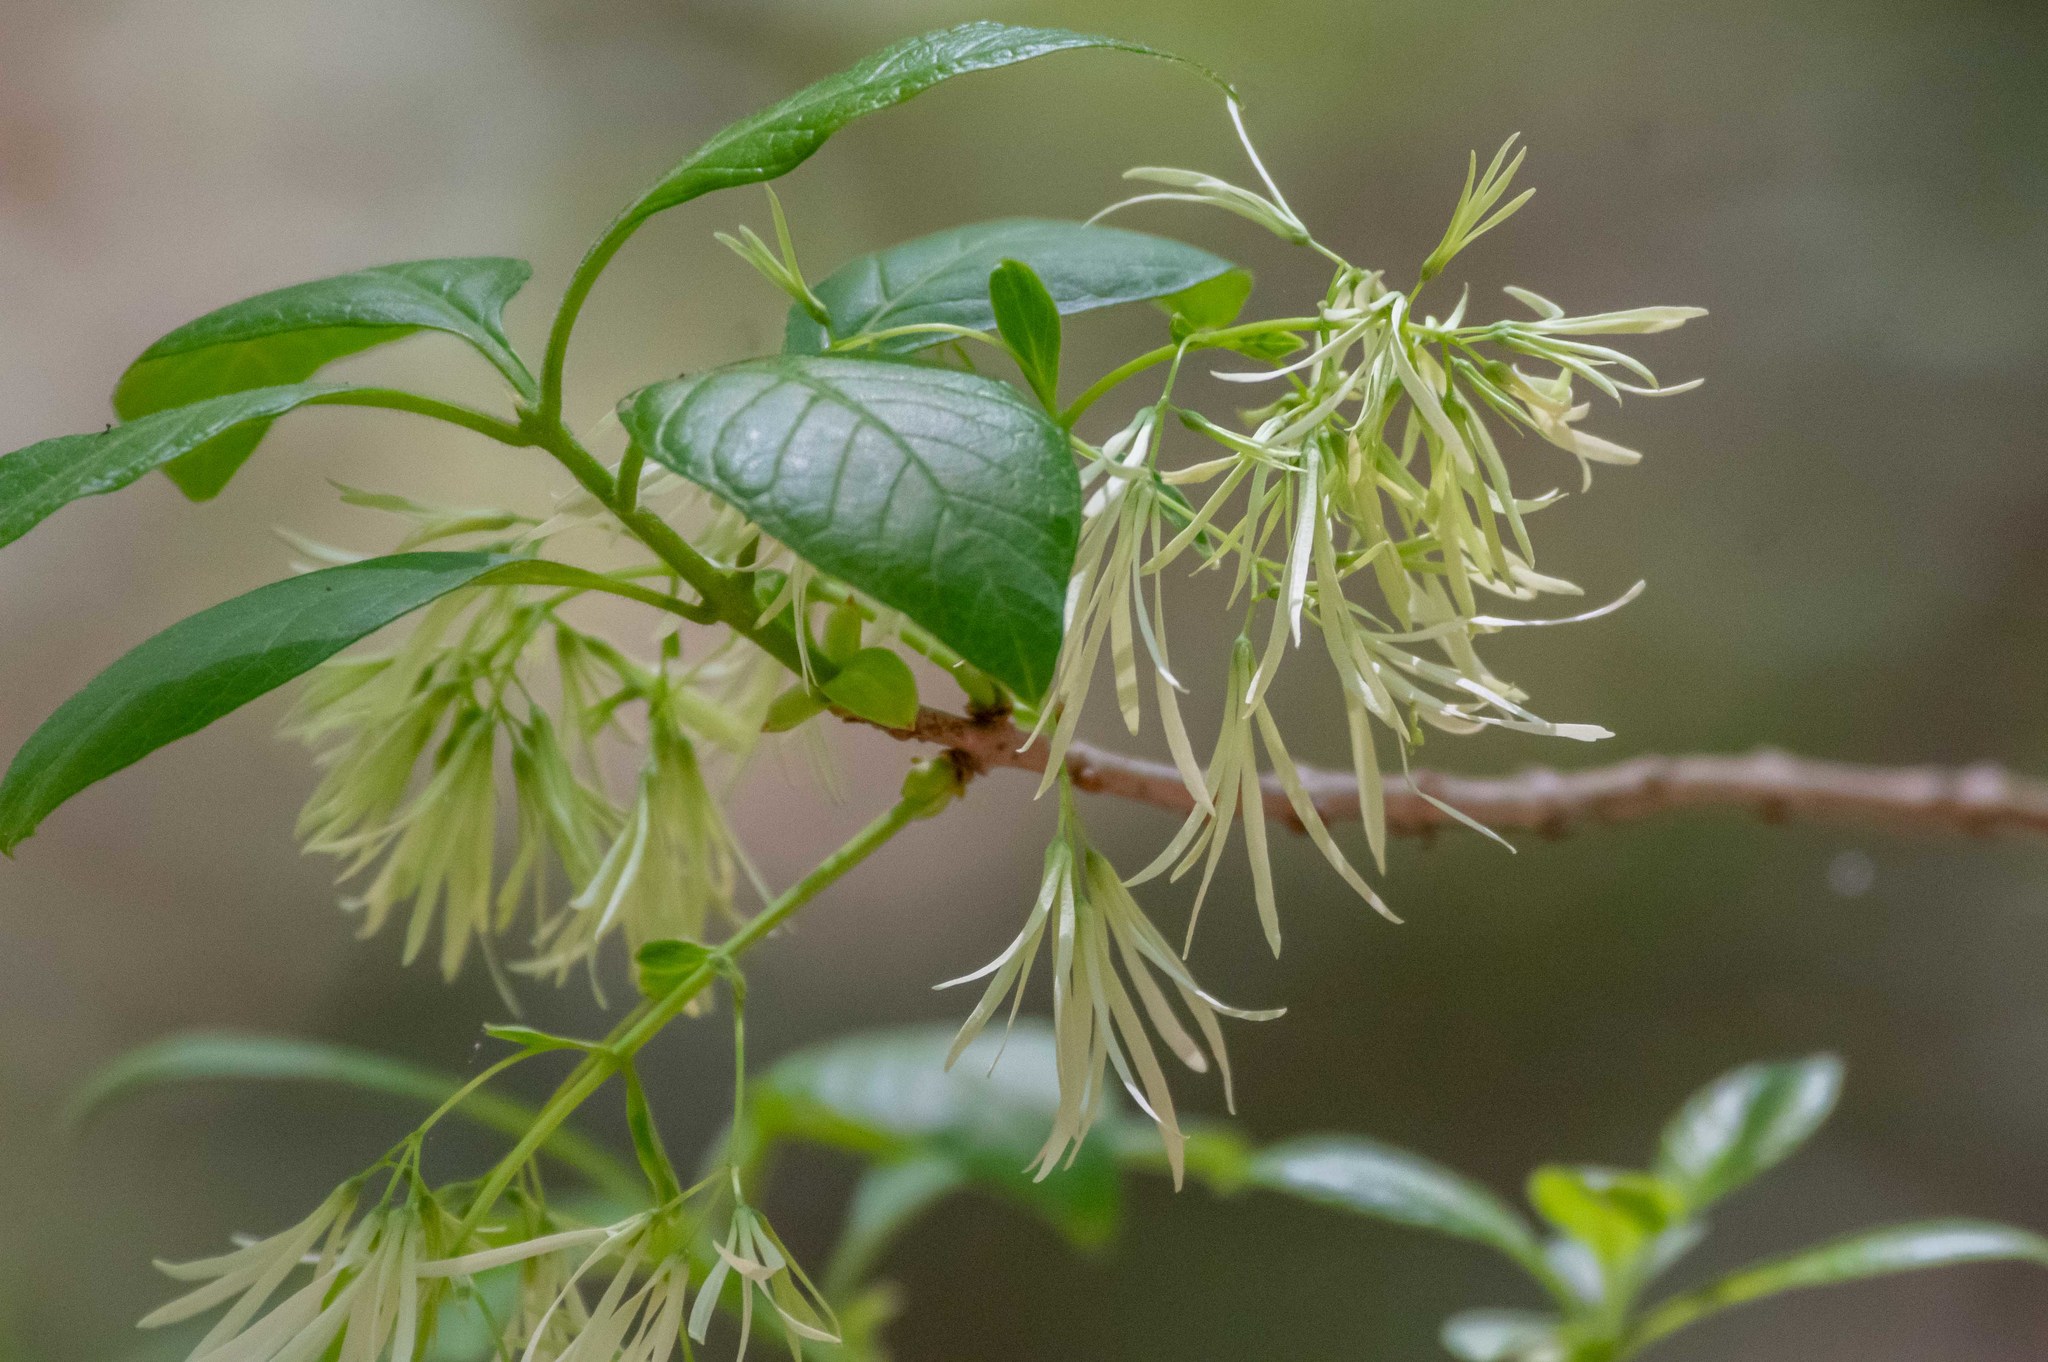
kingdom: Plantae
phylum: Tracheophyta
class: Magnoliopsida
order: Lamiales
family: Oleaceae
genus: Chionanthus
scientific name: Chionanthus virginicus
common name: American fringetree
